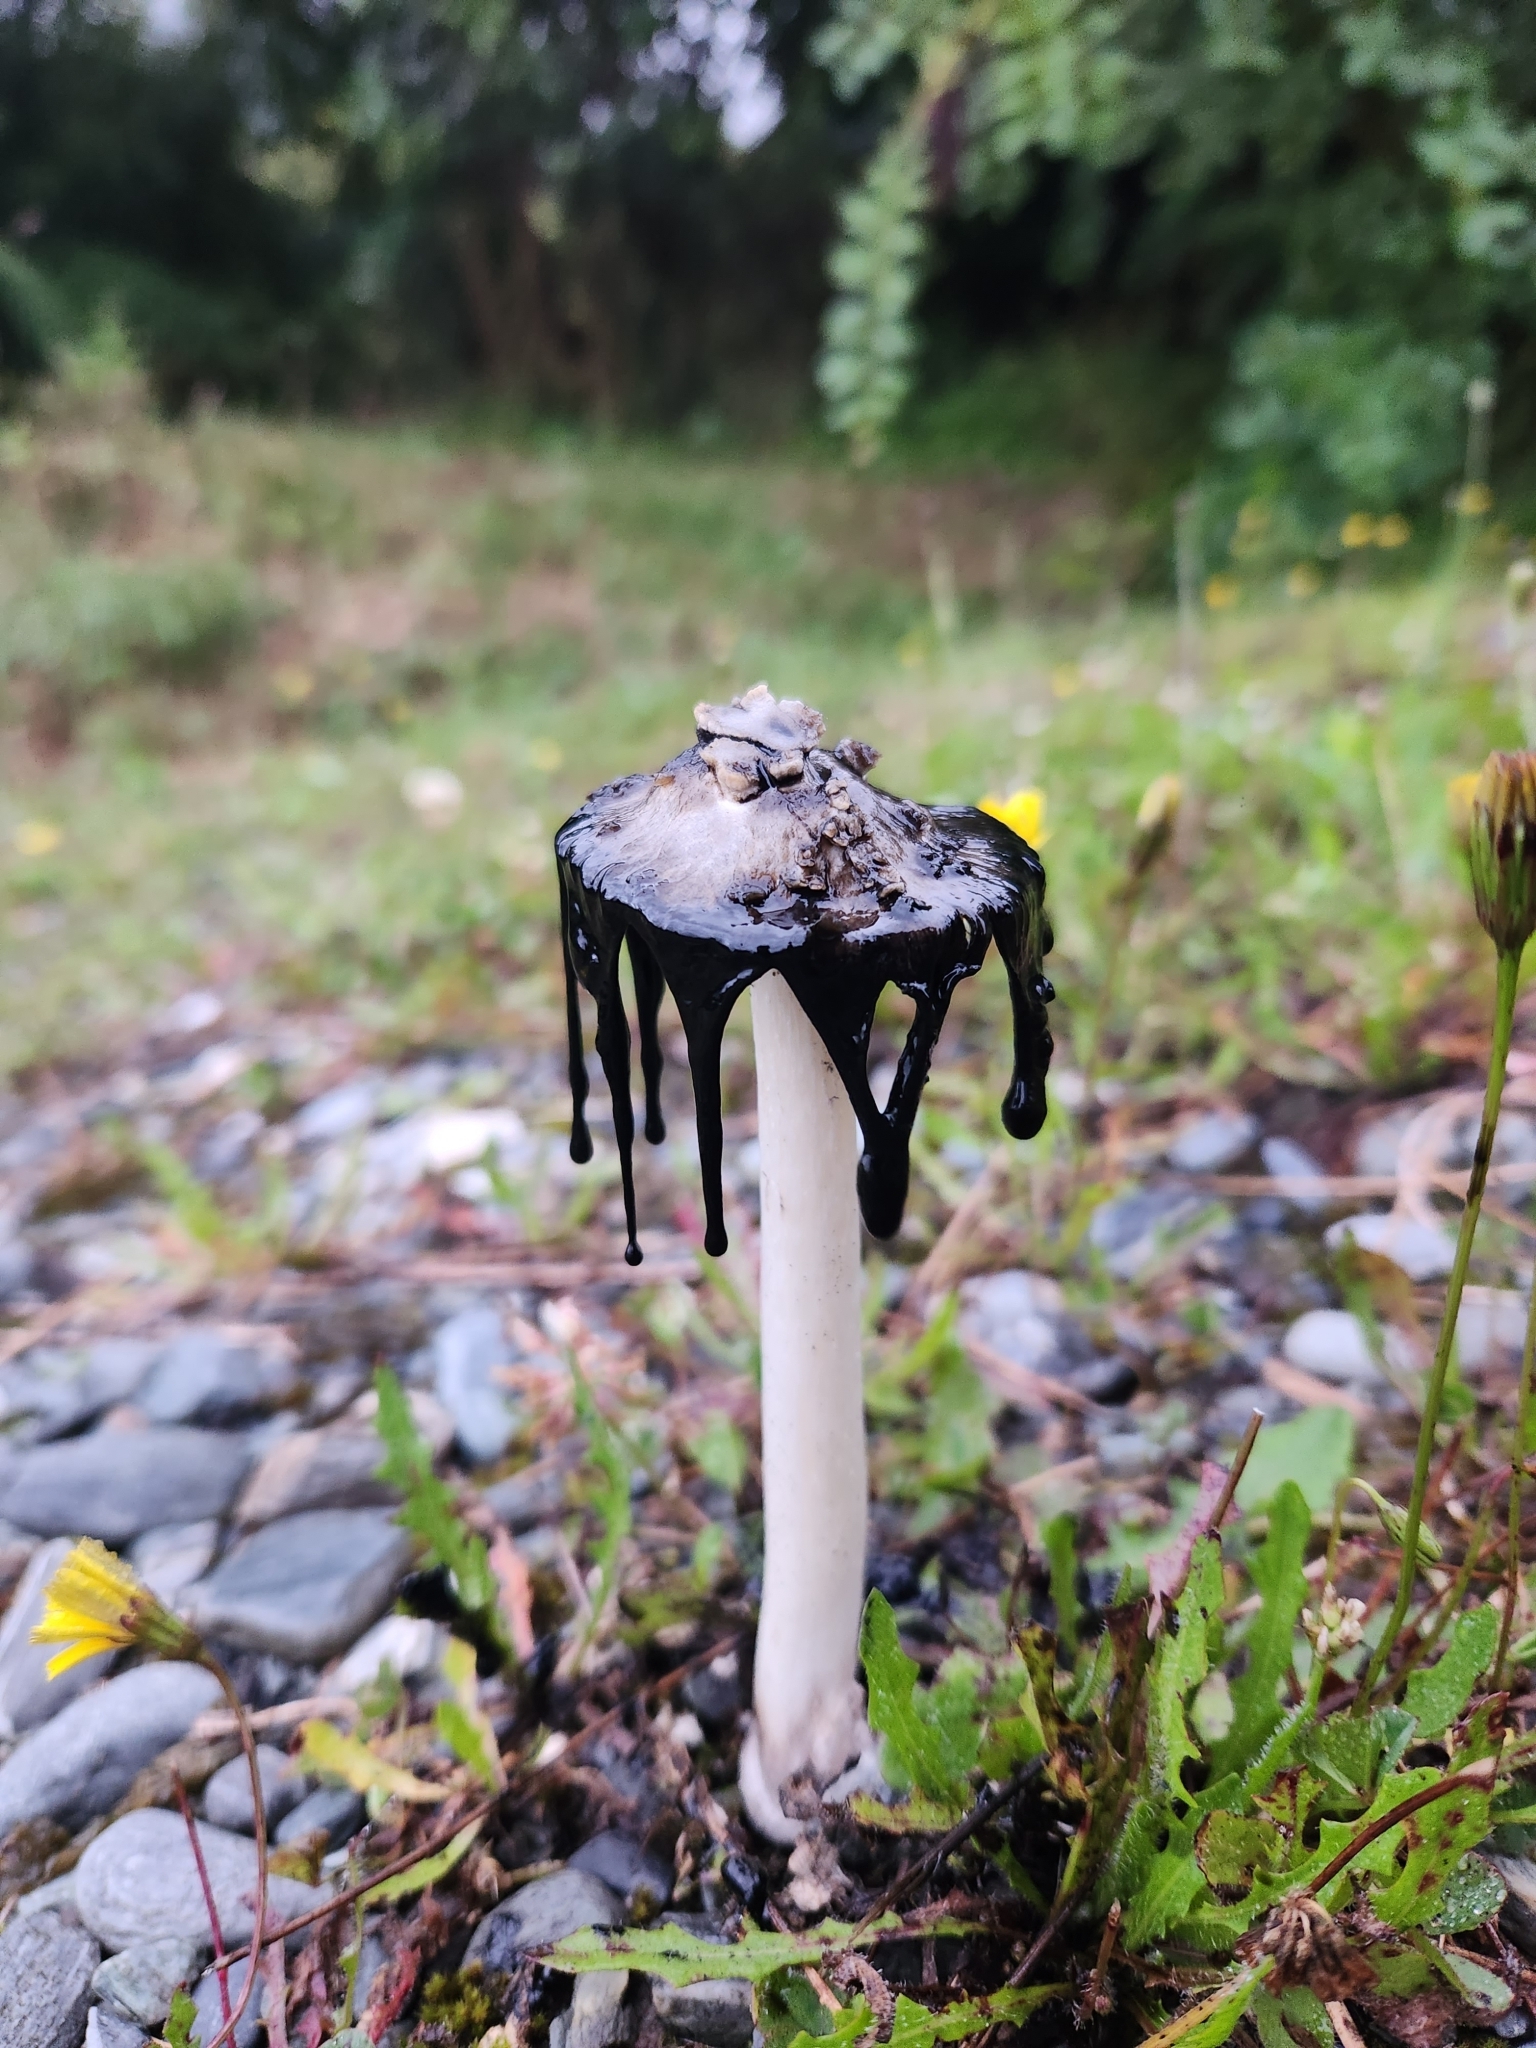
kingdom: Fungi
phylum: Basidiomycota
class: Agaricomycetes
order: Agaricales
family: Agaricaceae
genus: Coprinus
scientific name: Coprinus comatus
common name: Lawyer's wig
